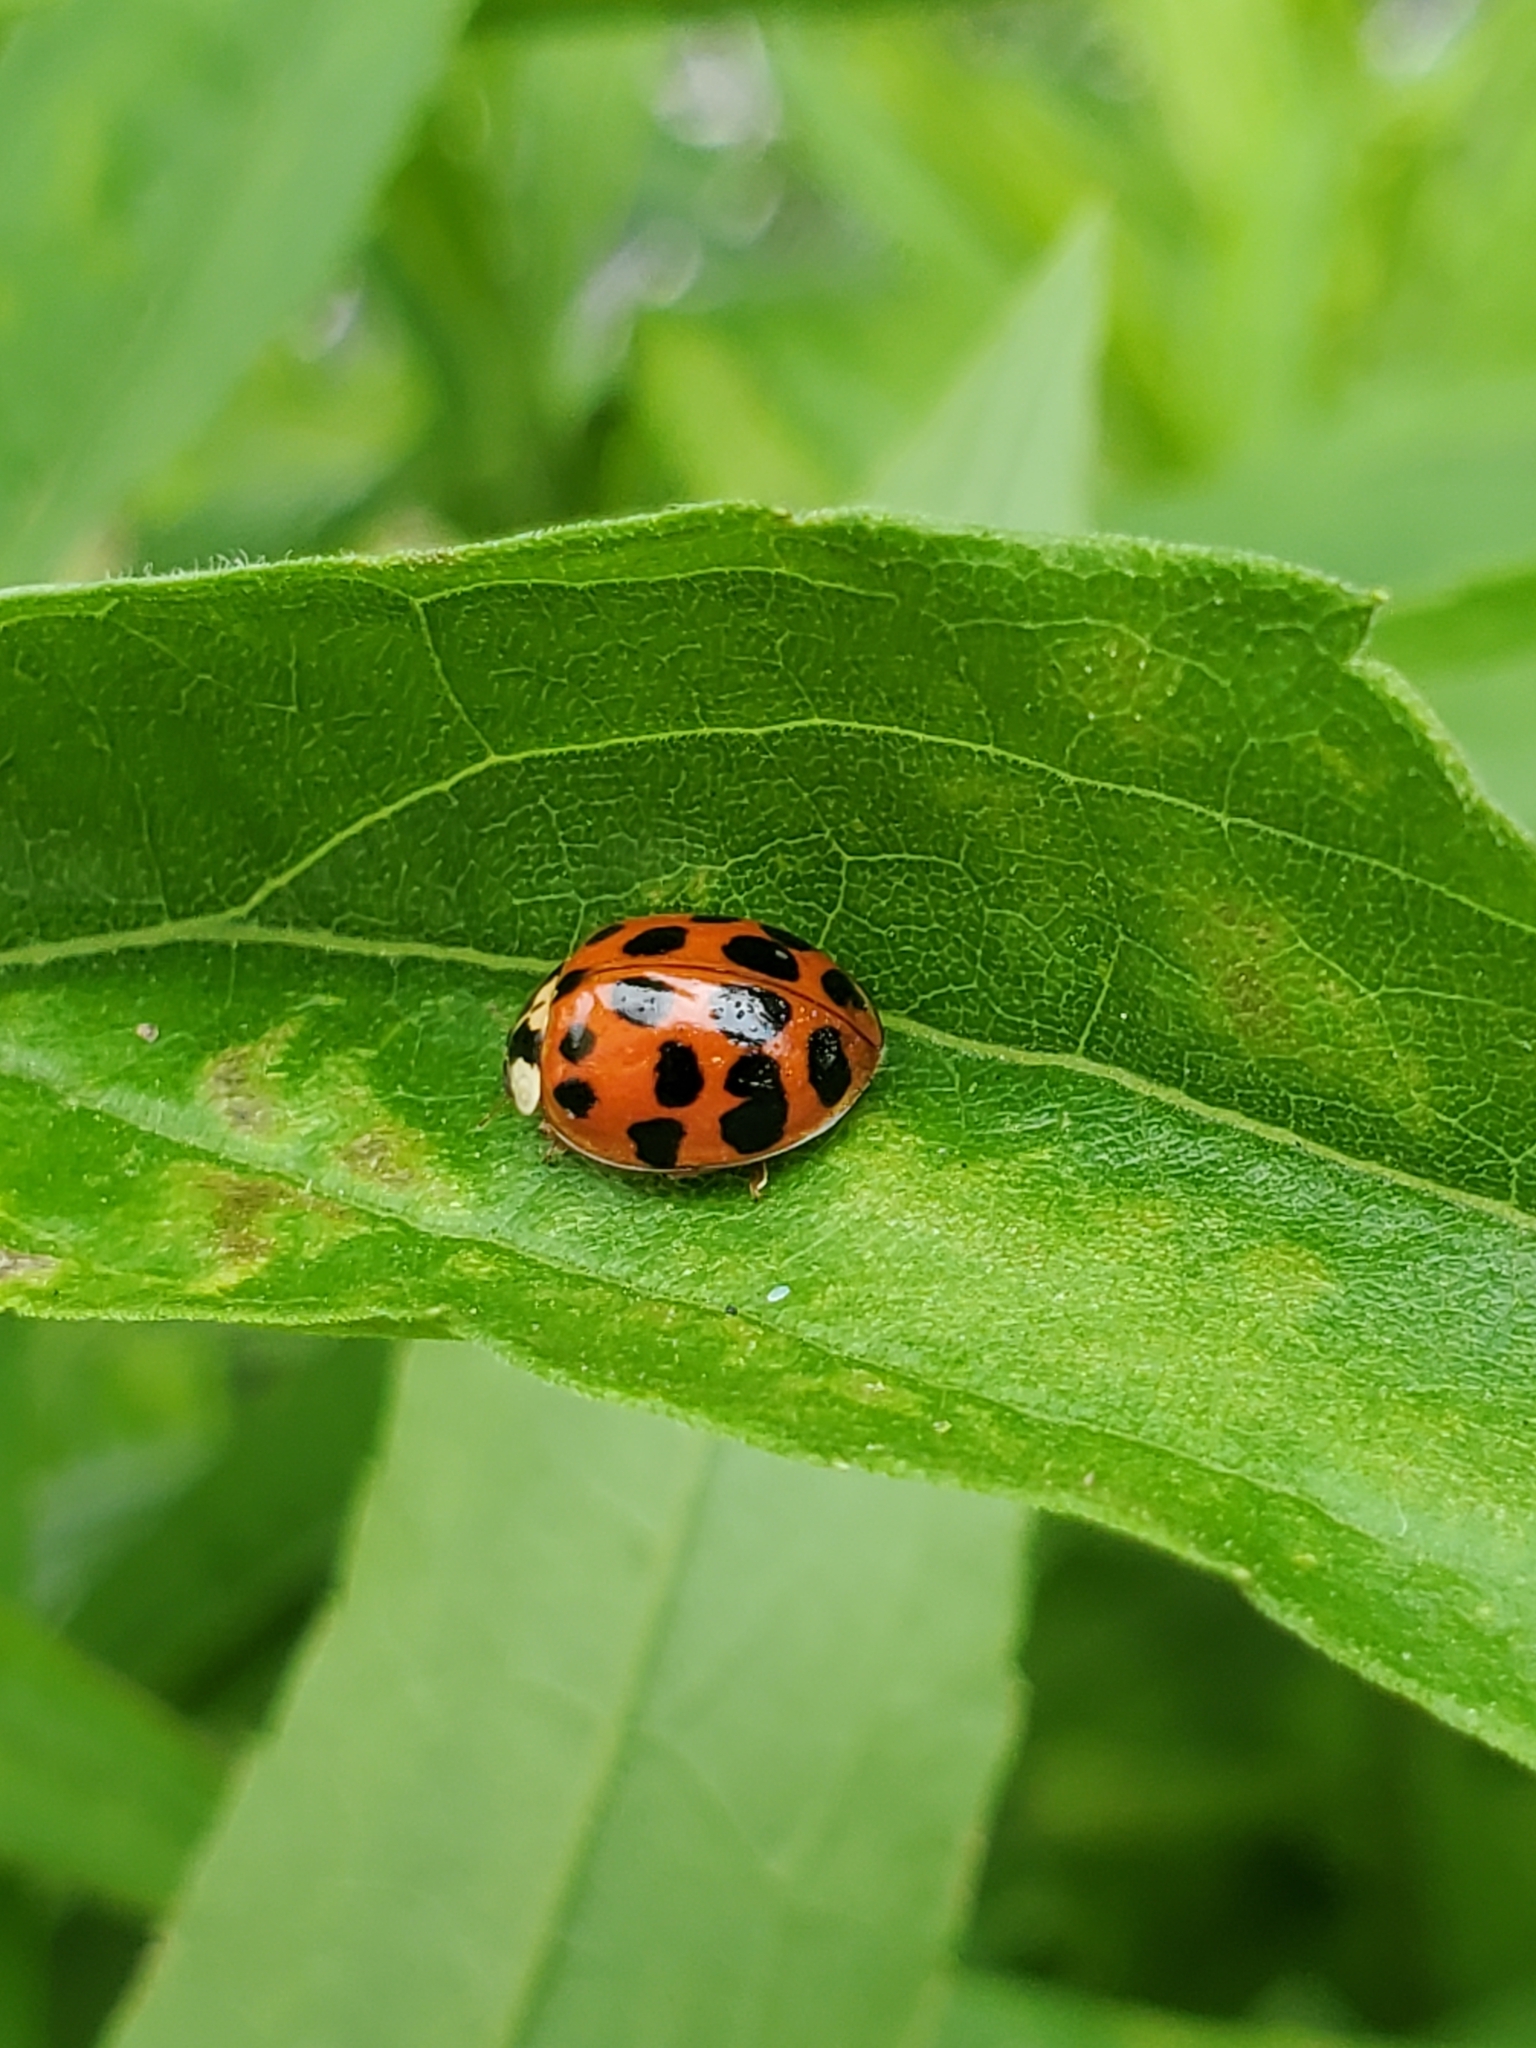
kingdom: Animalia
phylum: Arthropoda
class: Insecta
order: Coleoptera
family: Coccinellidae
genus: Harmonia
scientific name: Harmonia axyridis
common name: Harlequin ladybird
